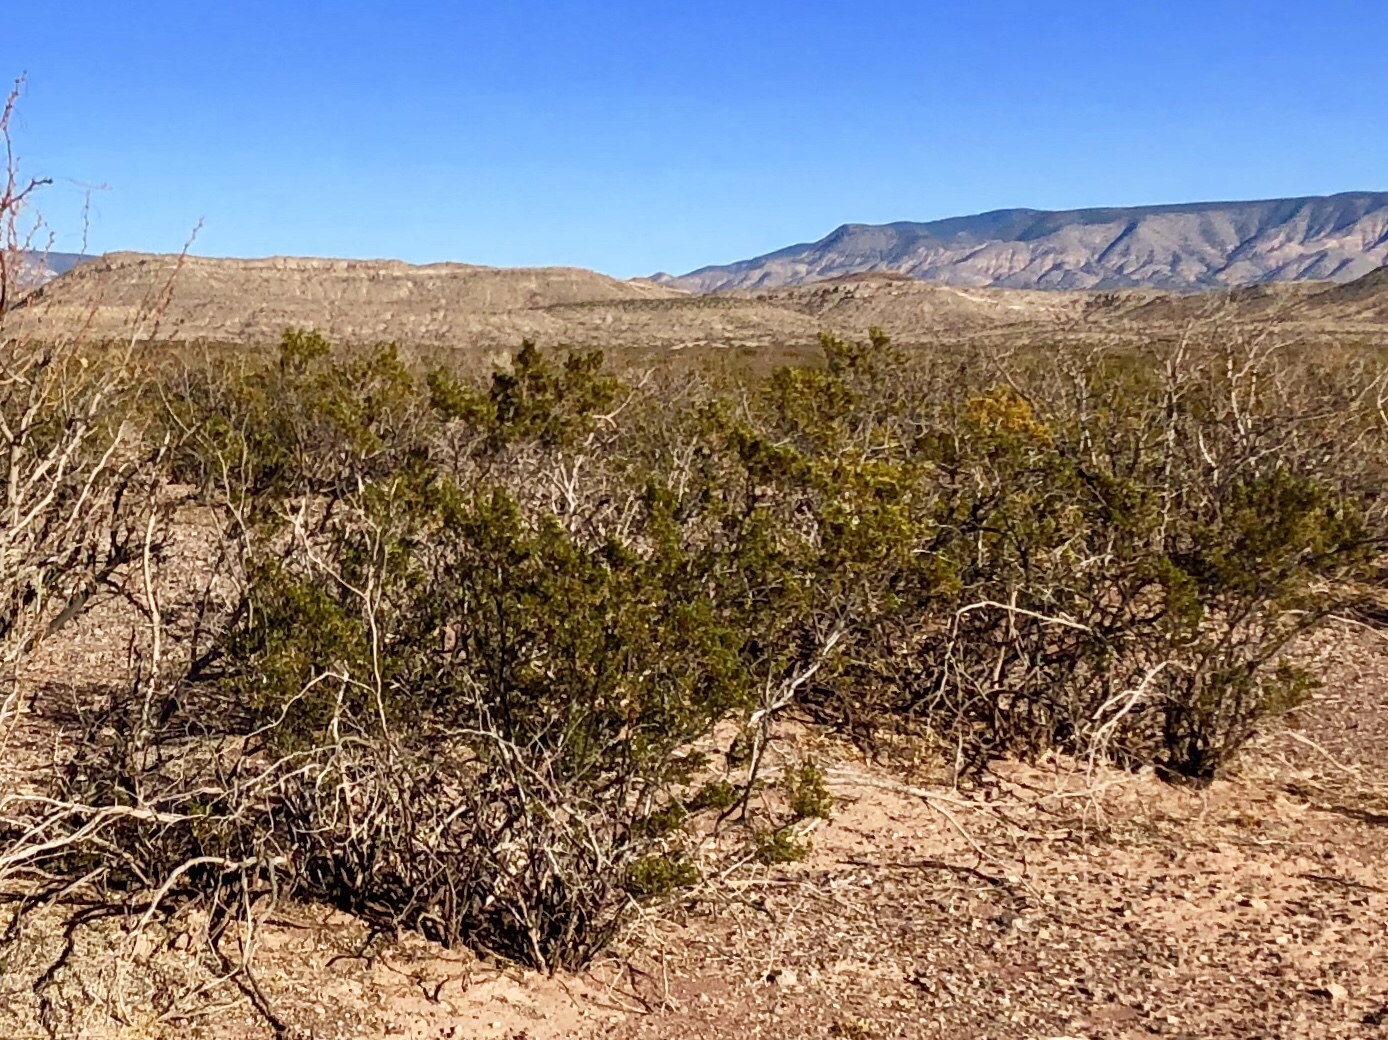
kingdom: Plantae
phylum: Tracheophyta
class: Magnoliopsida
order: Zygophyllales
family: Zygophyllaceae
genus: Larrea
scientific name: Larrea tridentata
